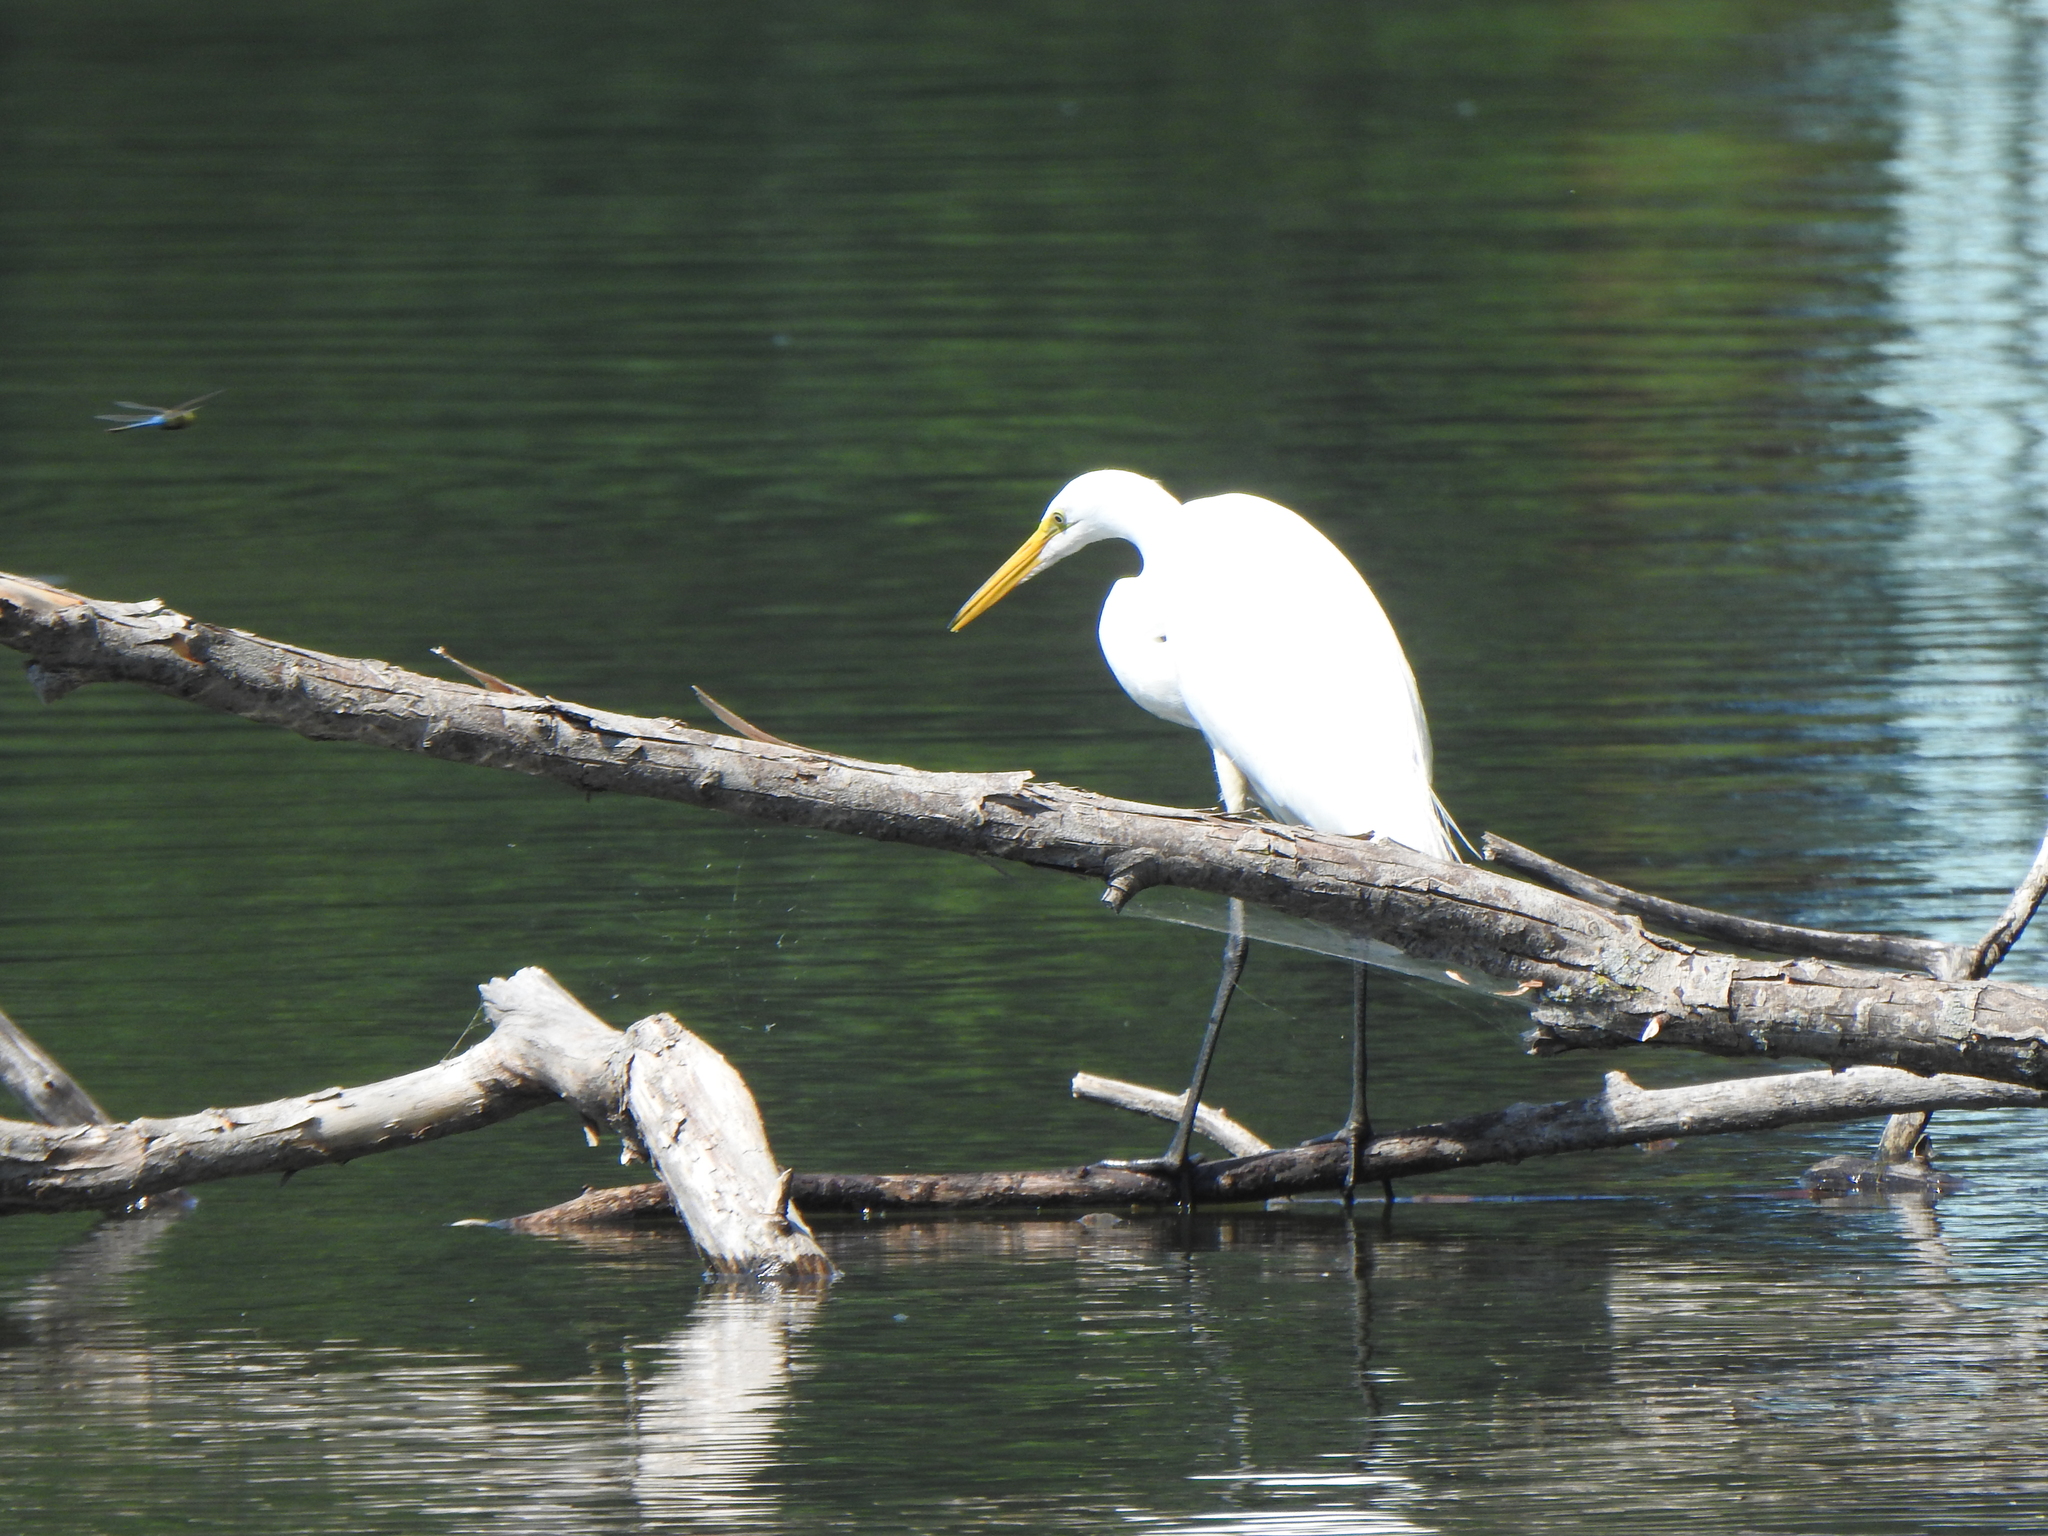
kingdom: Animalia
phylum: Chordata
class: Aves
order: Pelecaniformes
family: Ardeidae
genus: Ardea
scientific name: Ardea alba
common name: Great egret
